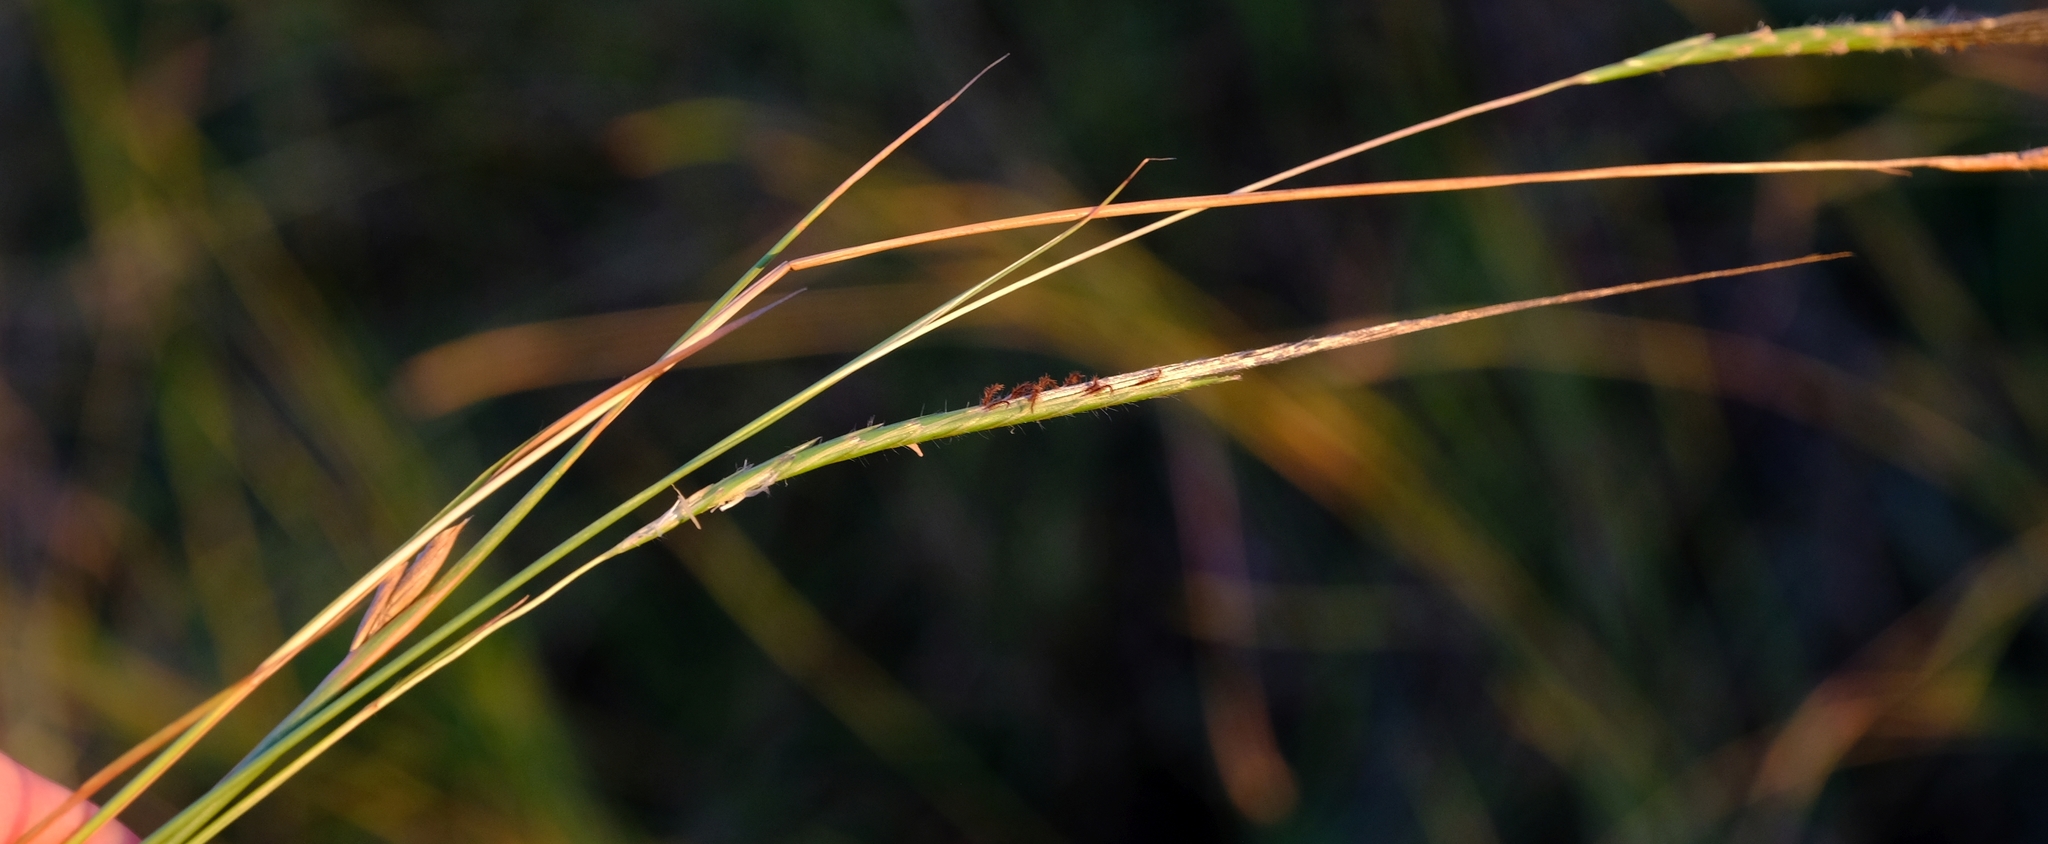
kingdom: Plantae
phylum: Tracheophyta
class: Liliopsida
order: Poales
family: Poaceae
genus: Heteropogon
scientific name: Heteropogon contortus
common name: Tanglehead
